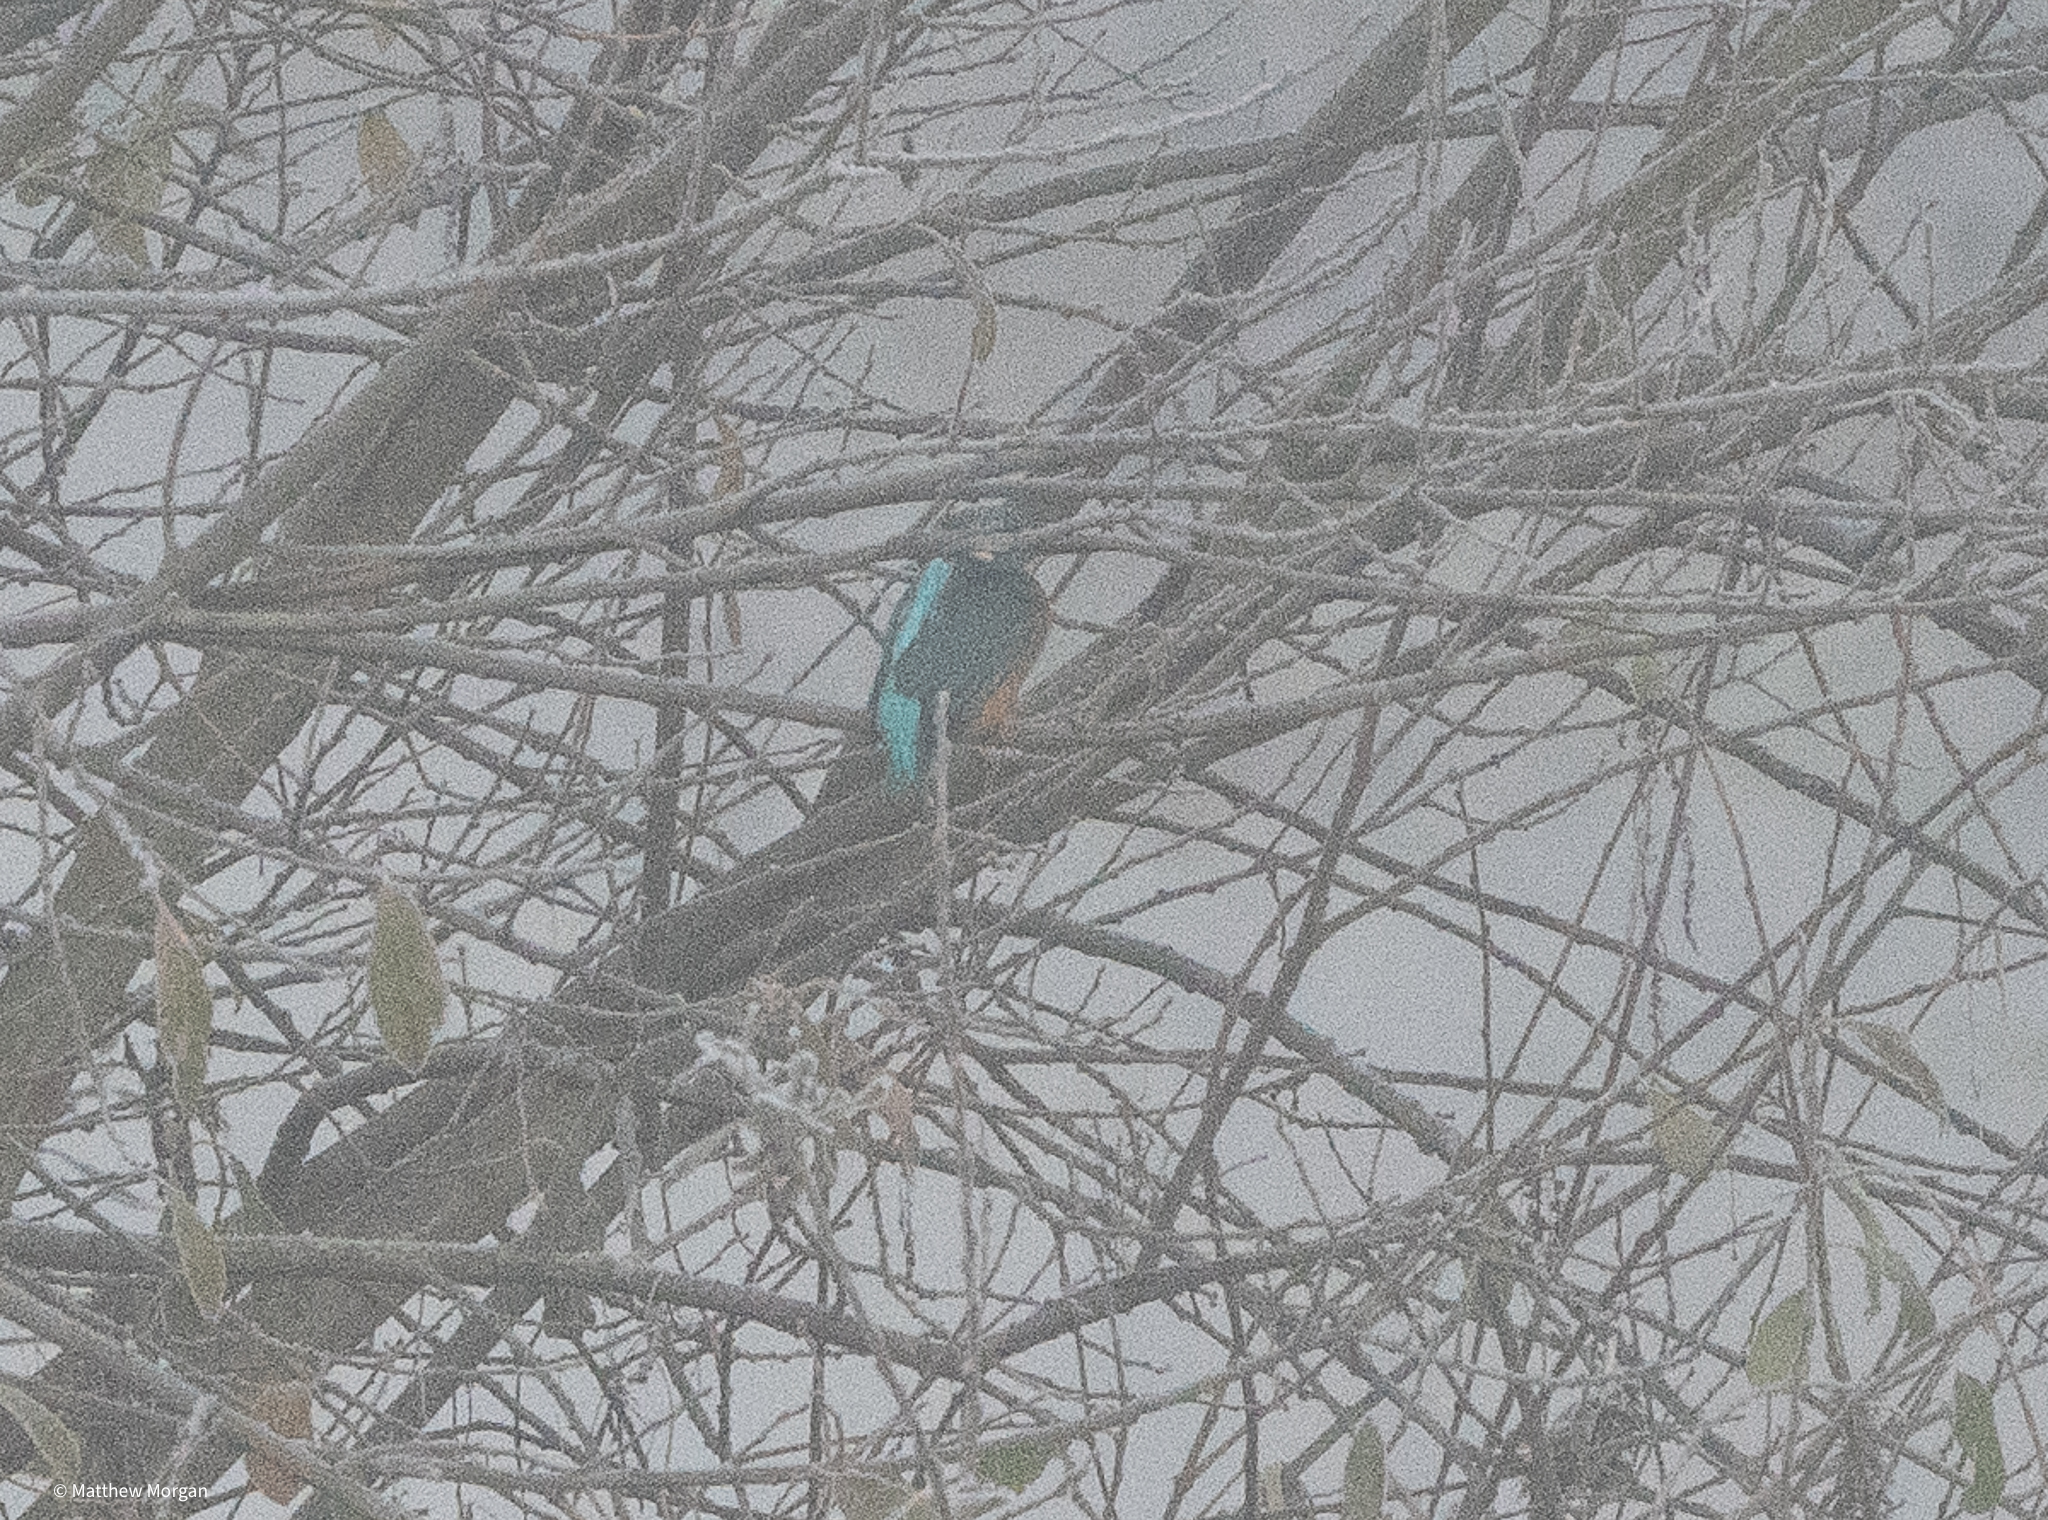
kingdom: Animalia
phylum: Chordata
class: Aves
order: Coraciiformes
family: Alcedinidae
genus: Alcedo
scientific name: Alcedo atthis
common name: Common kingfisher
